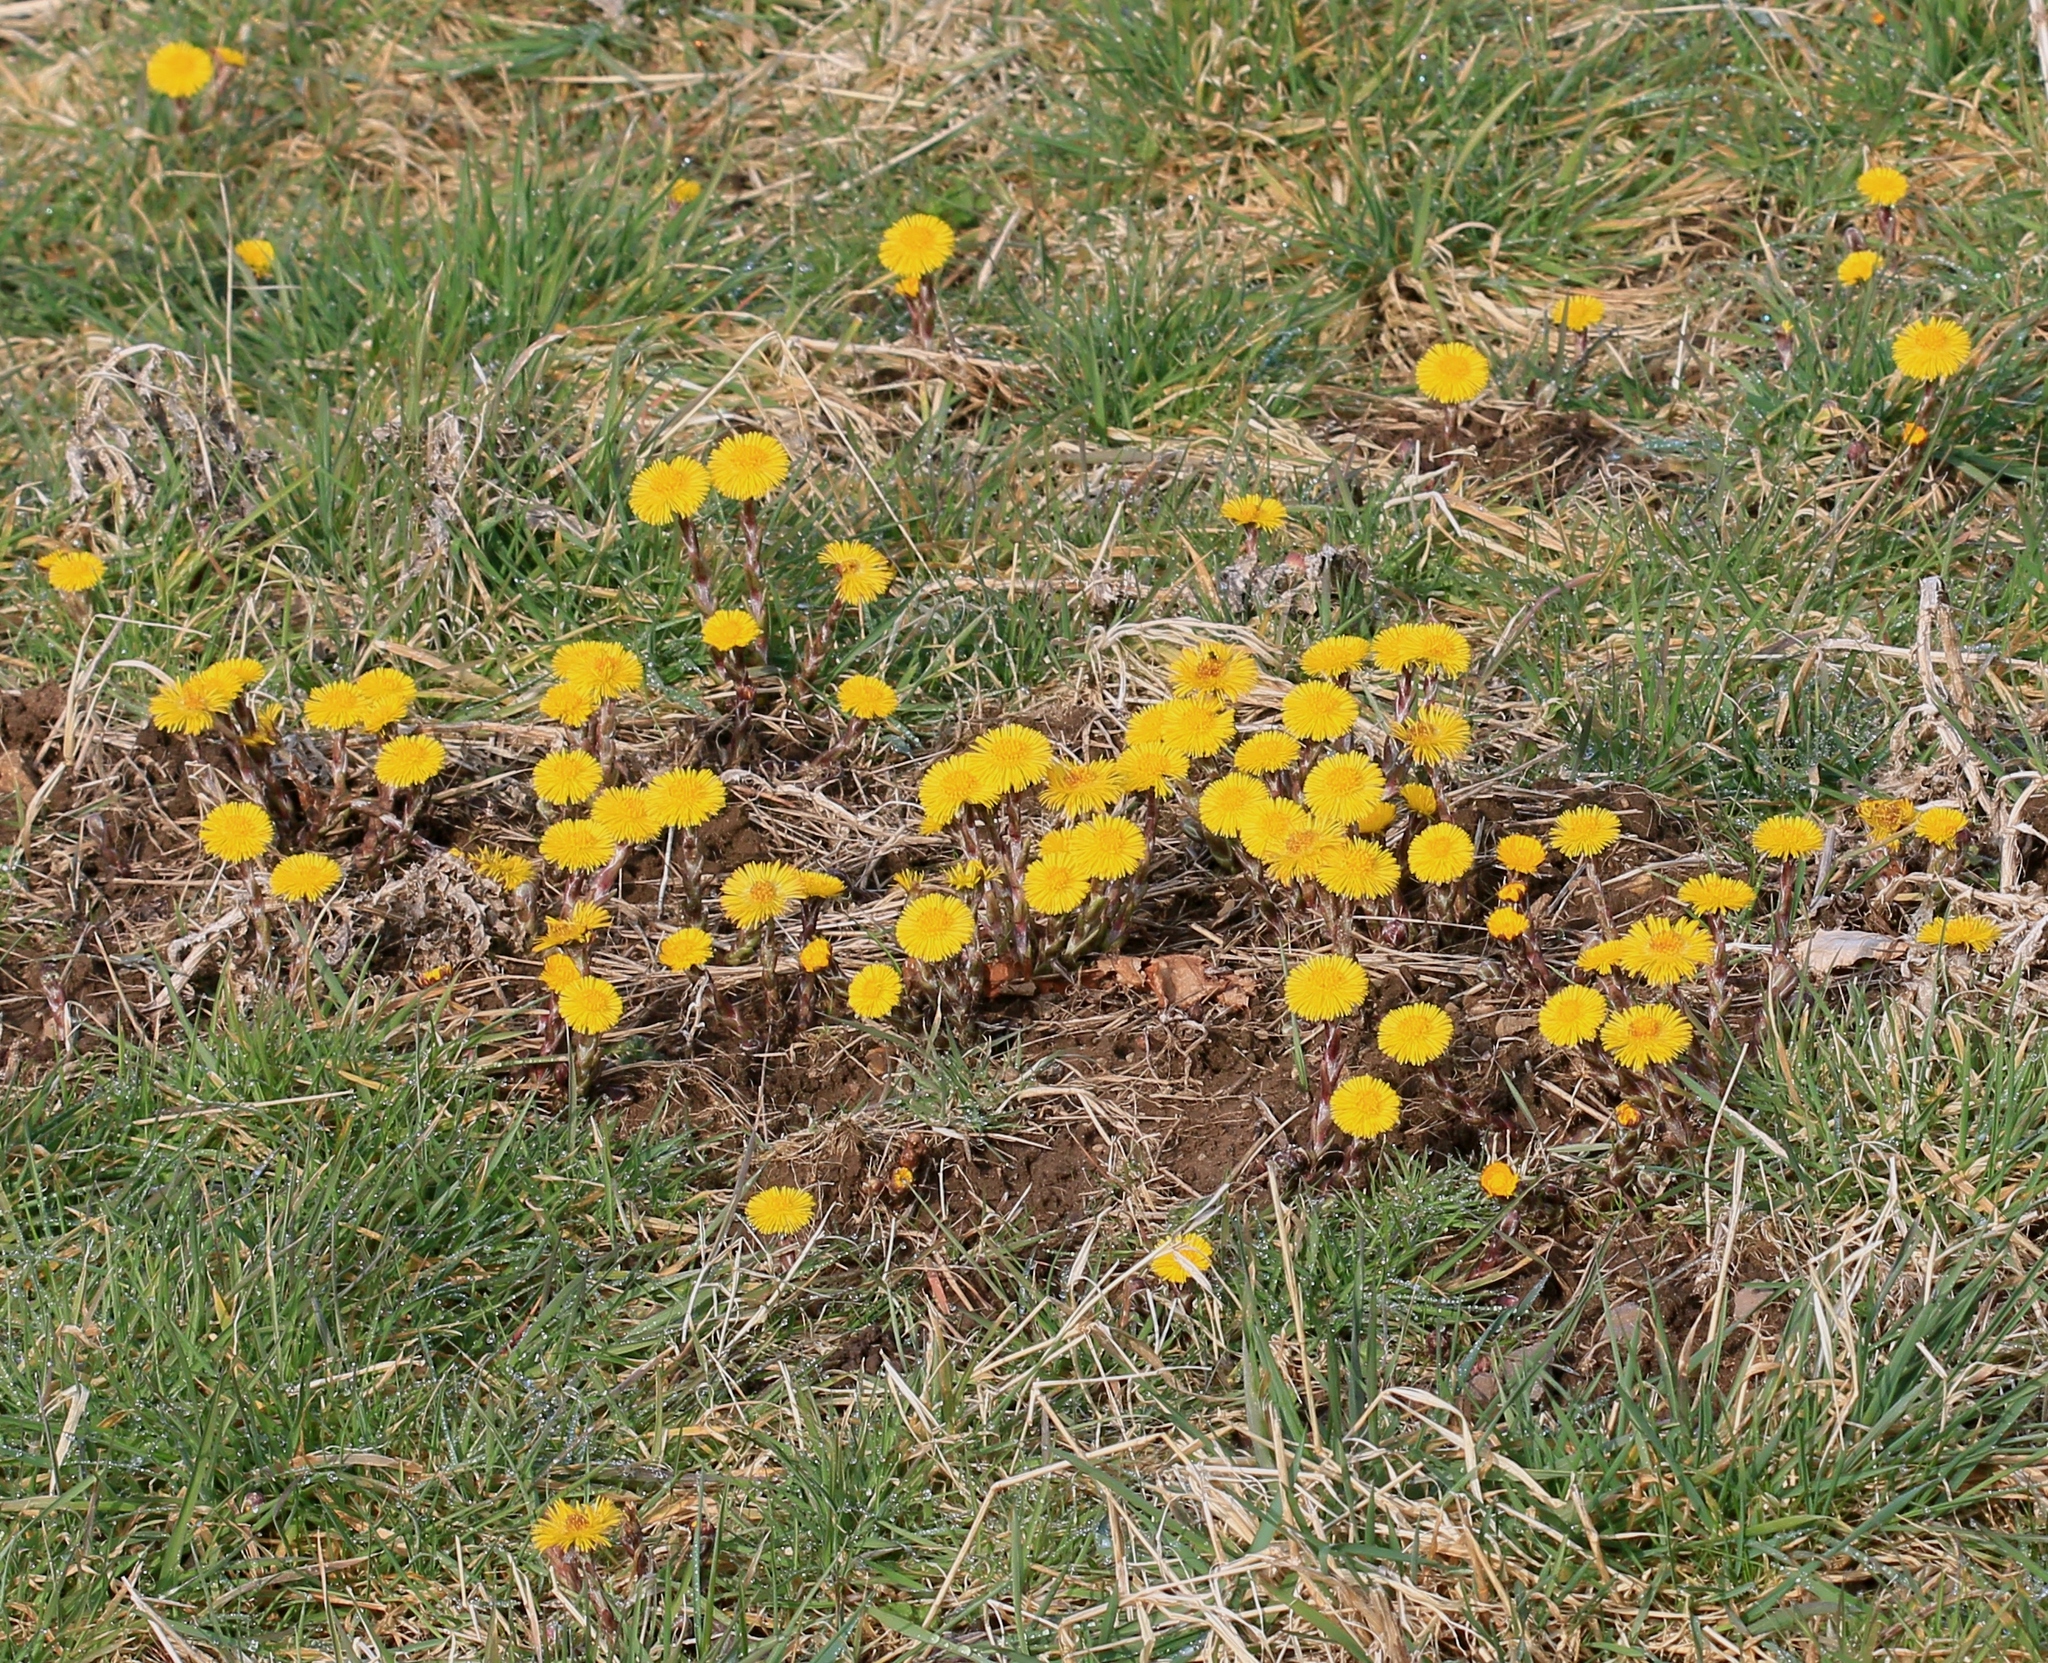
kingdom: Plantae
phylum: Tracheophyta
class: Magnoliopsida
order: Asterales
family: Asteraceae
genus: Tussilago
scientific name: Tussilago farfara
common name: Coltsfoot
